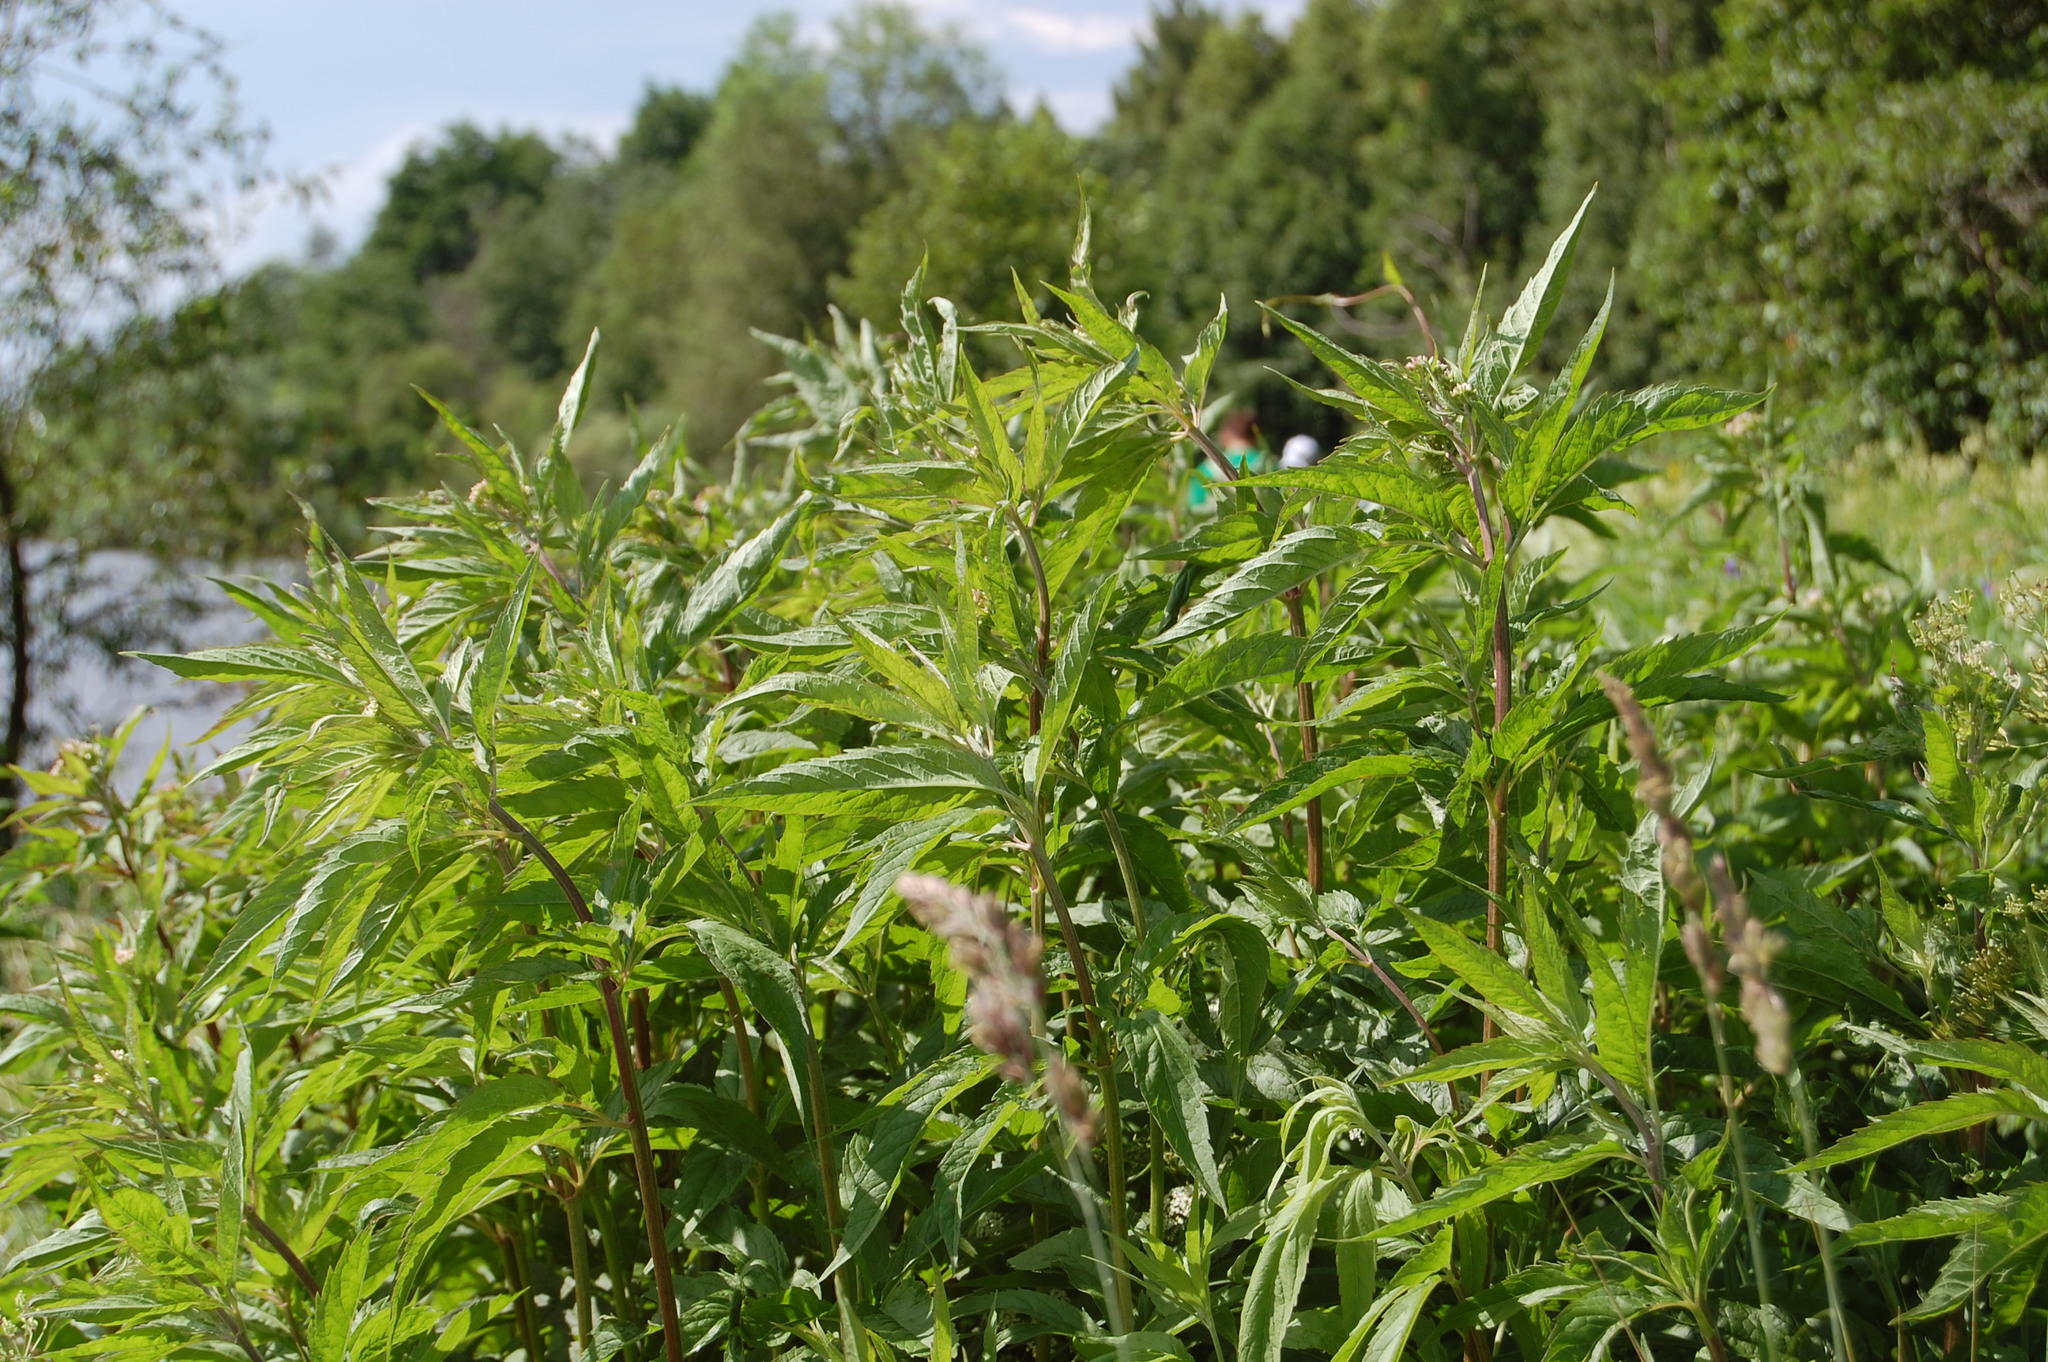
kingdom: Plantae
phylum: Tracheophyta
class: Magnoliopsida
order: Asterales
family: Asteraceae
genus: Eupatorium
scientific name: Eupatorium cannabinum
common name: Hemp-agrimony
